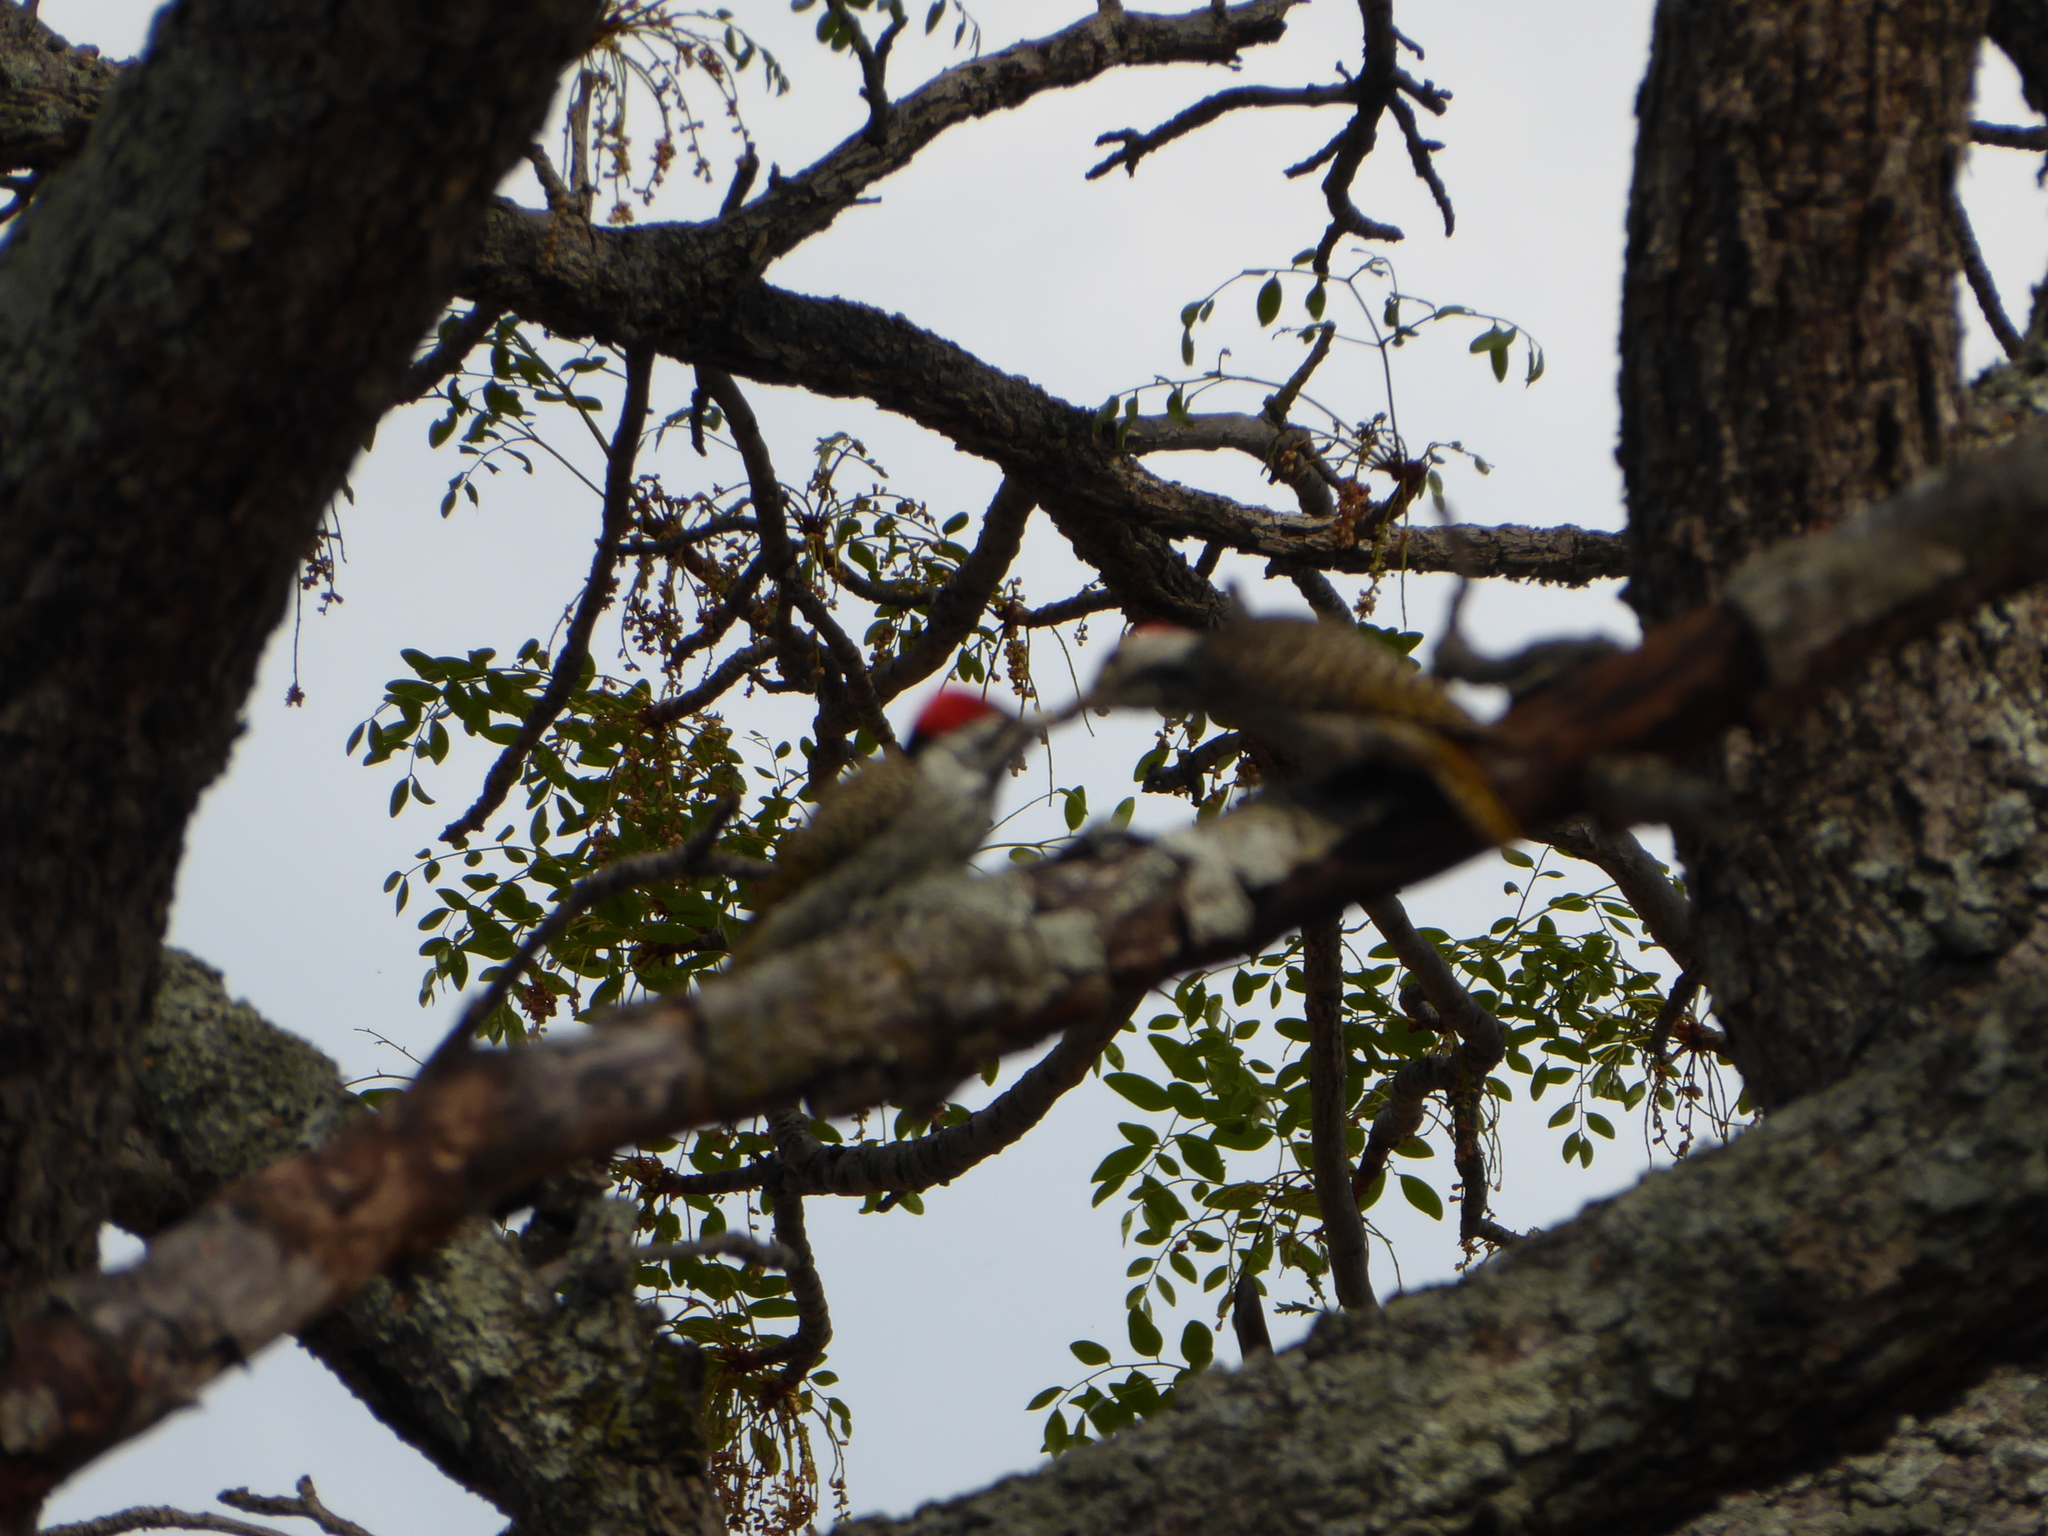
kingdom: Animalia
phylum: Chordata
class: Aves
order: Piciformes
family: Picidae
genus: Dendropicos
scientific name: Dendropicos fuscescens
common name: Cardinal woodpecker
